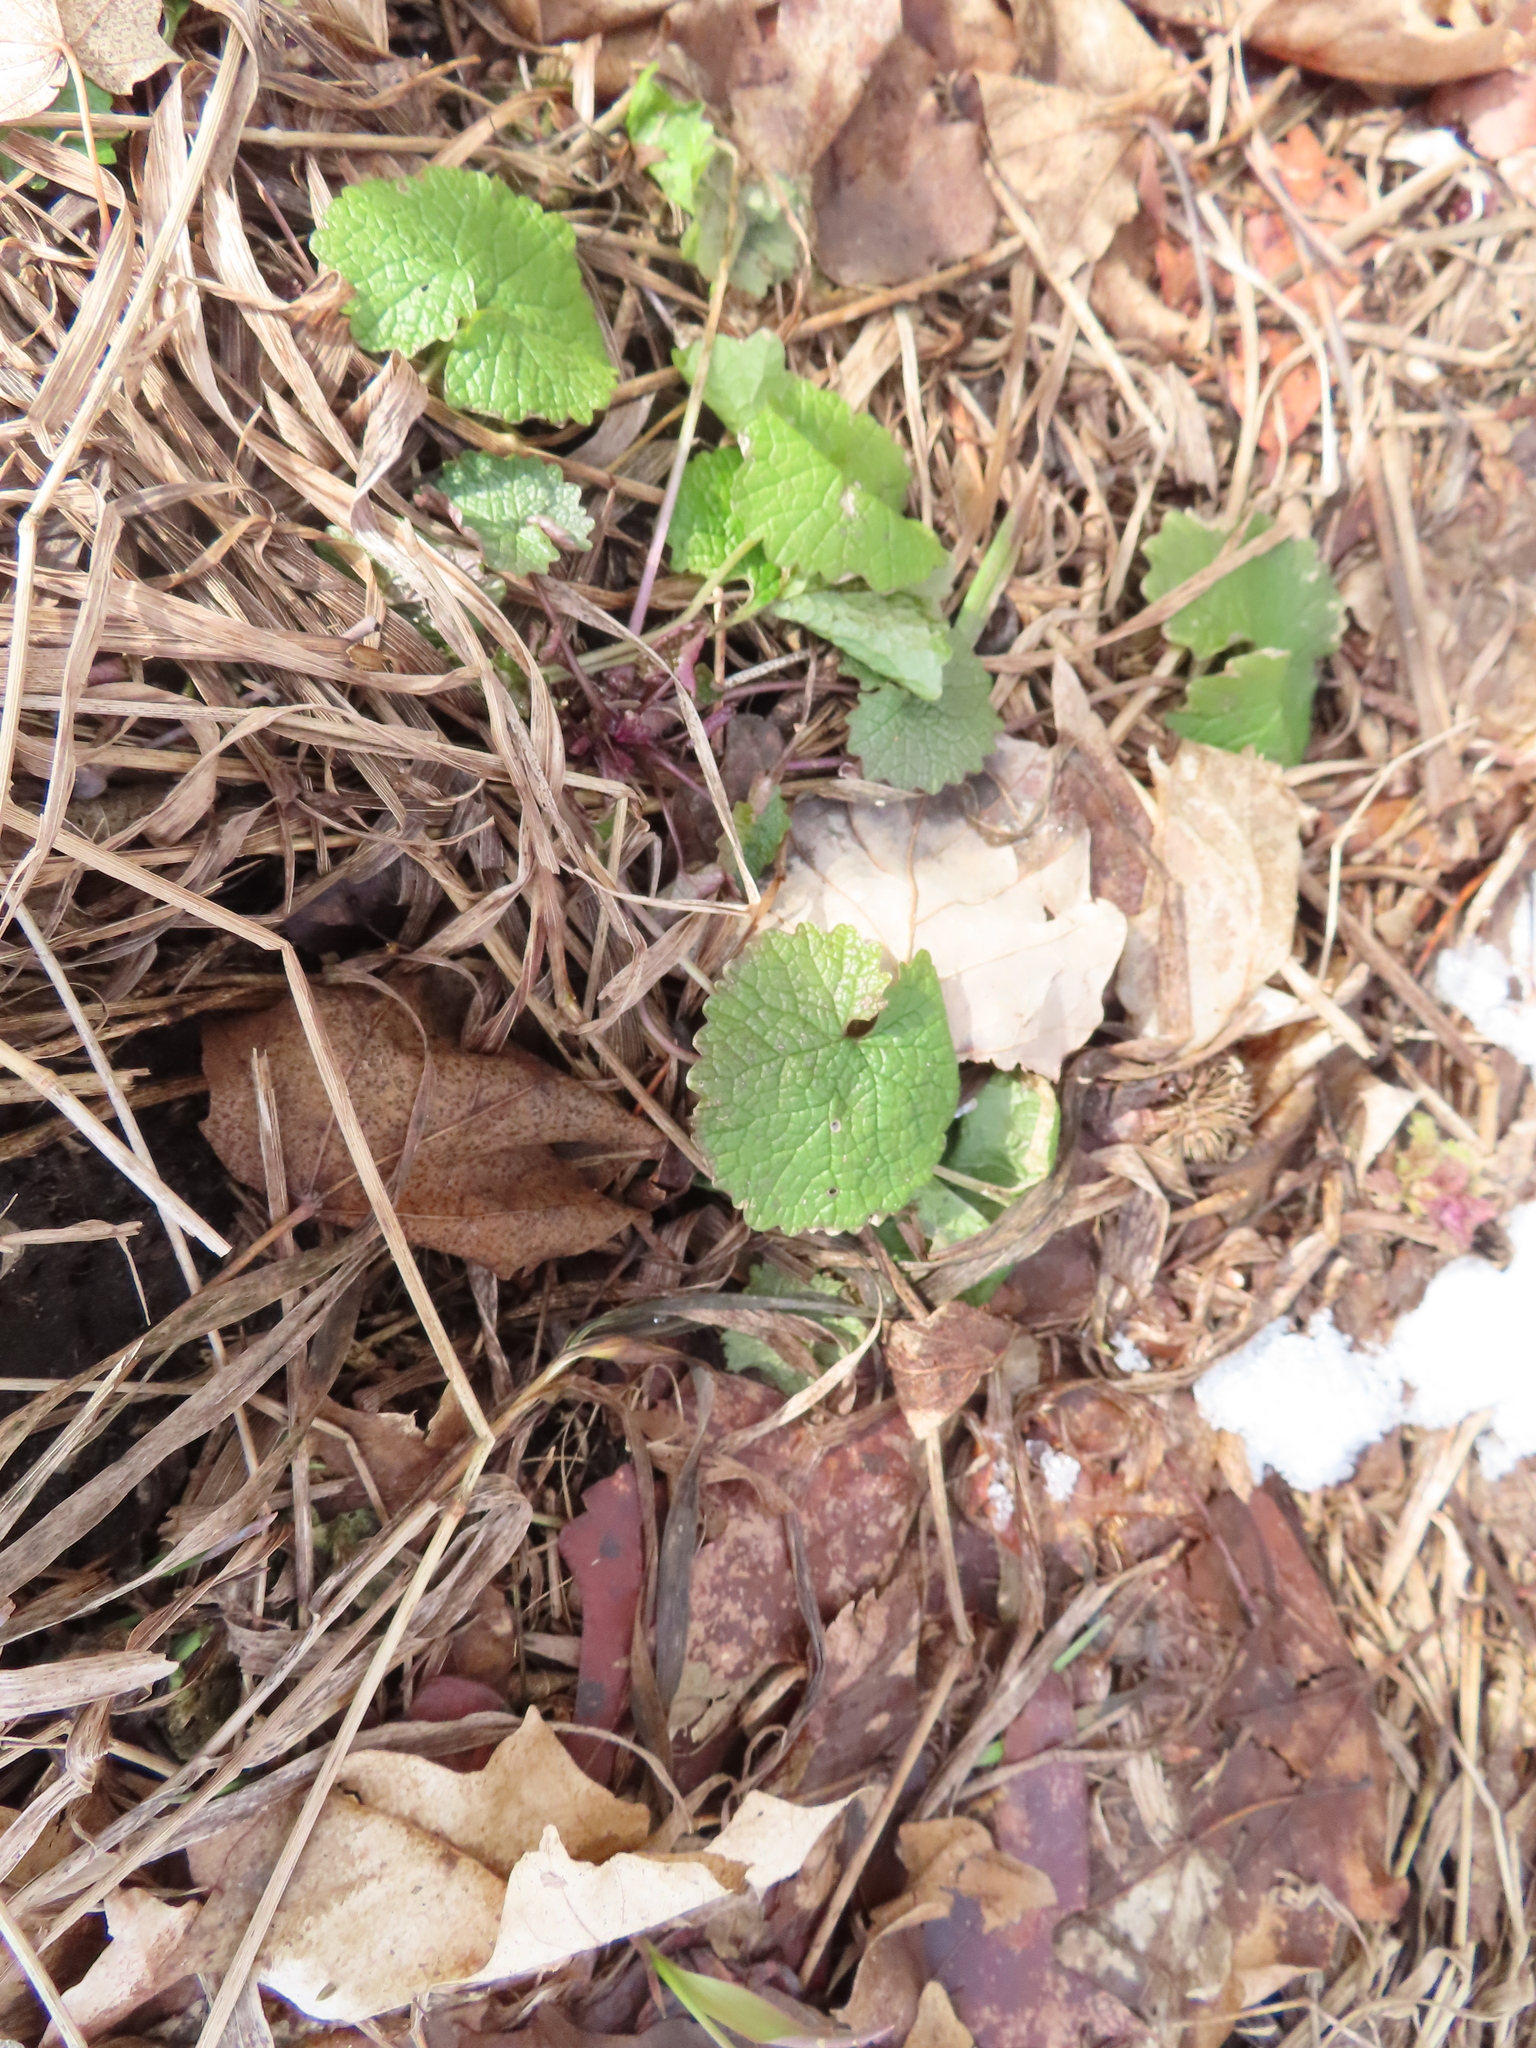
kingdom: Plantae
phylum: Tracheophyta
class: Magnoliopsida
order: Brassicales
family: Brassicaceae
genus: Alliaria
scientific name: Alliaria petiolata
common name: Garlic mustard
